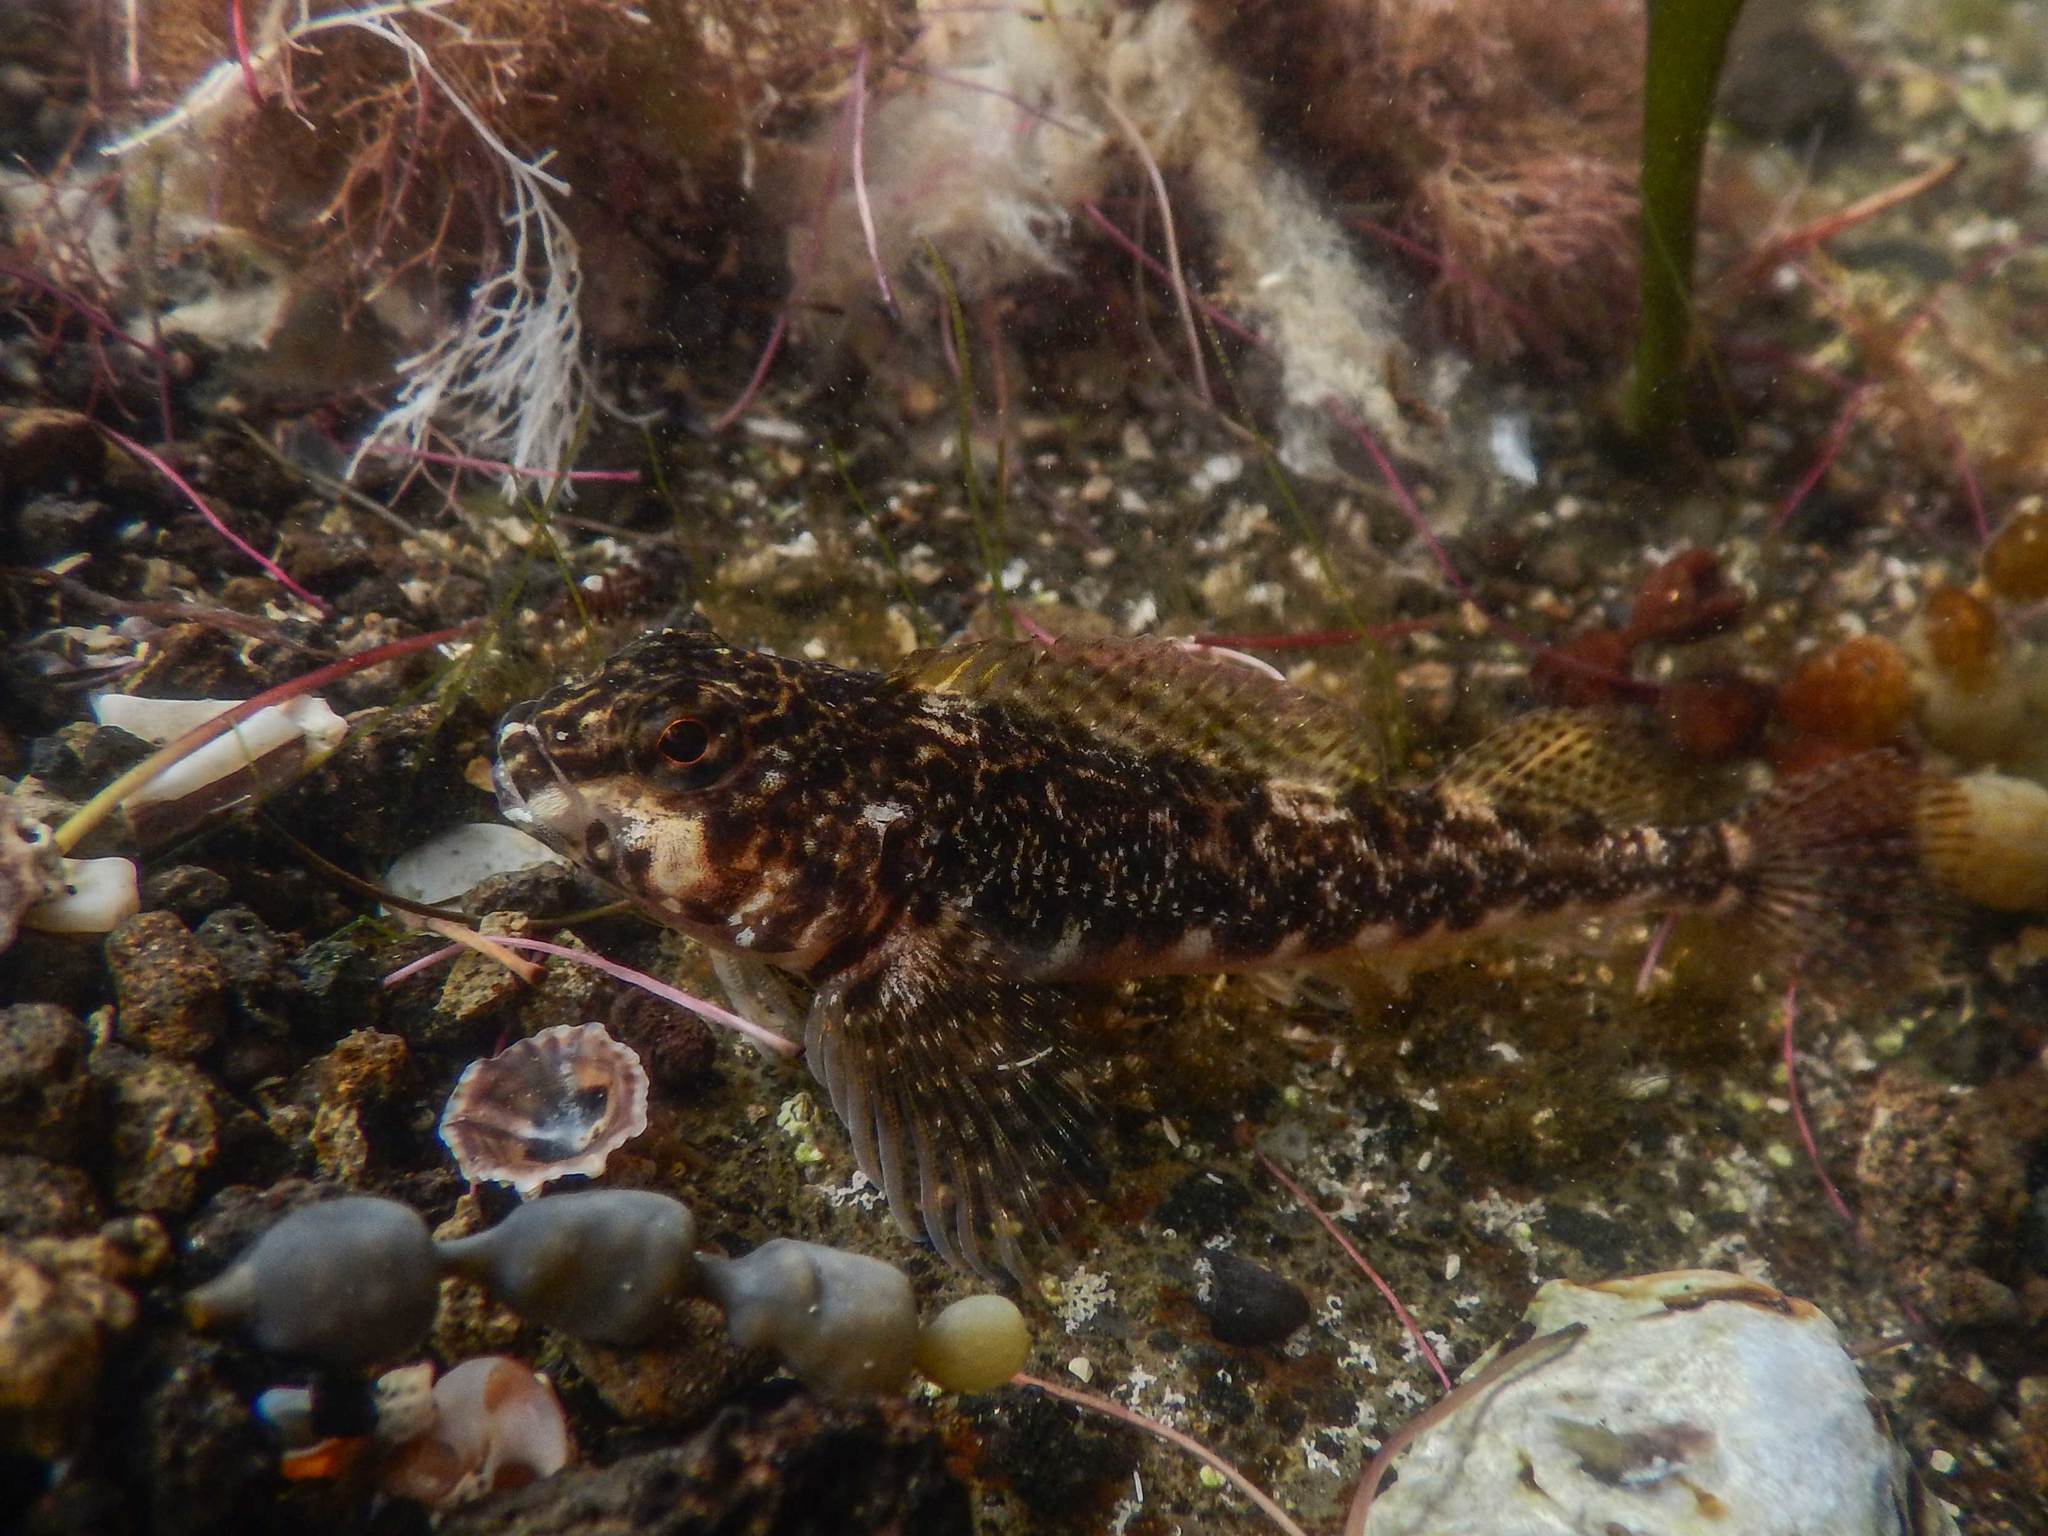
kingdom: Animalia
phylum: Chordata
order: Perciformes
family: Tripterygiidae
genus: Bellapiscis
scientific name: Bellapiscis medius
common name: Twister
